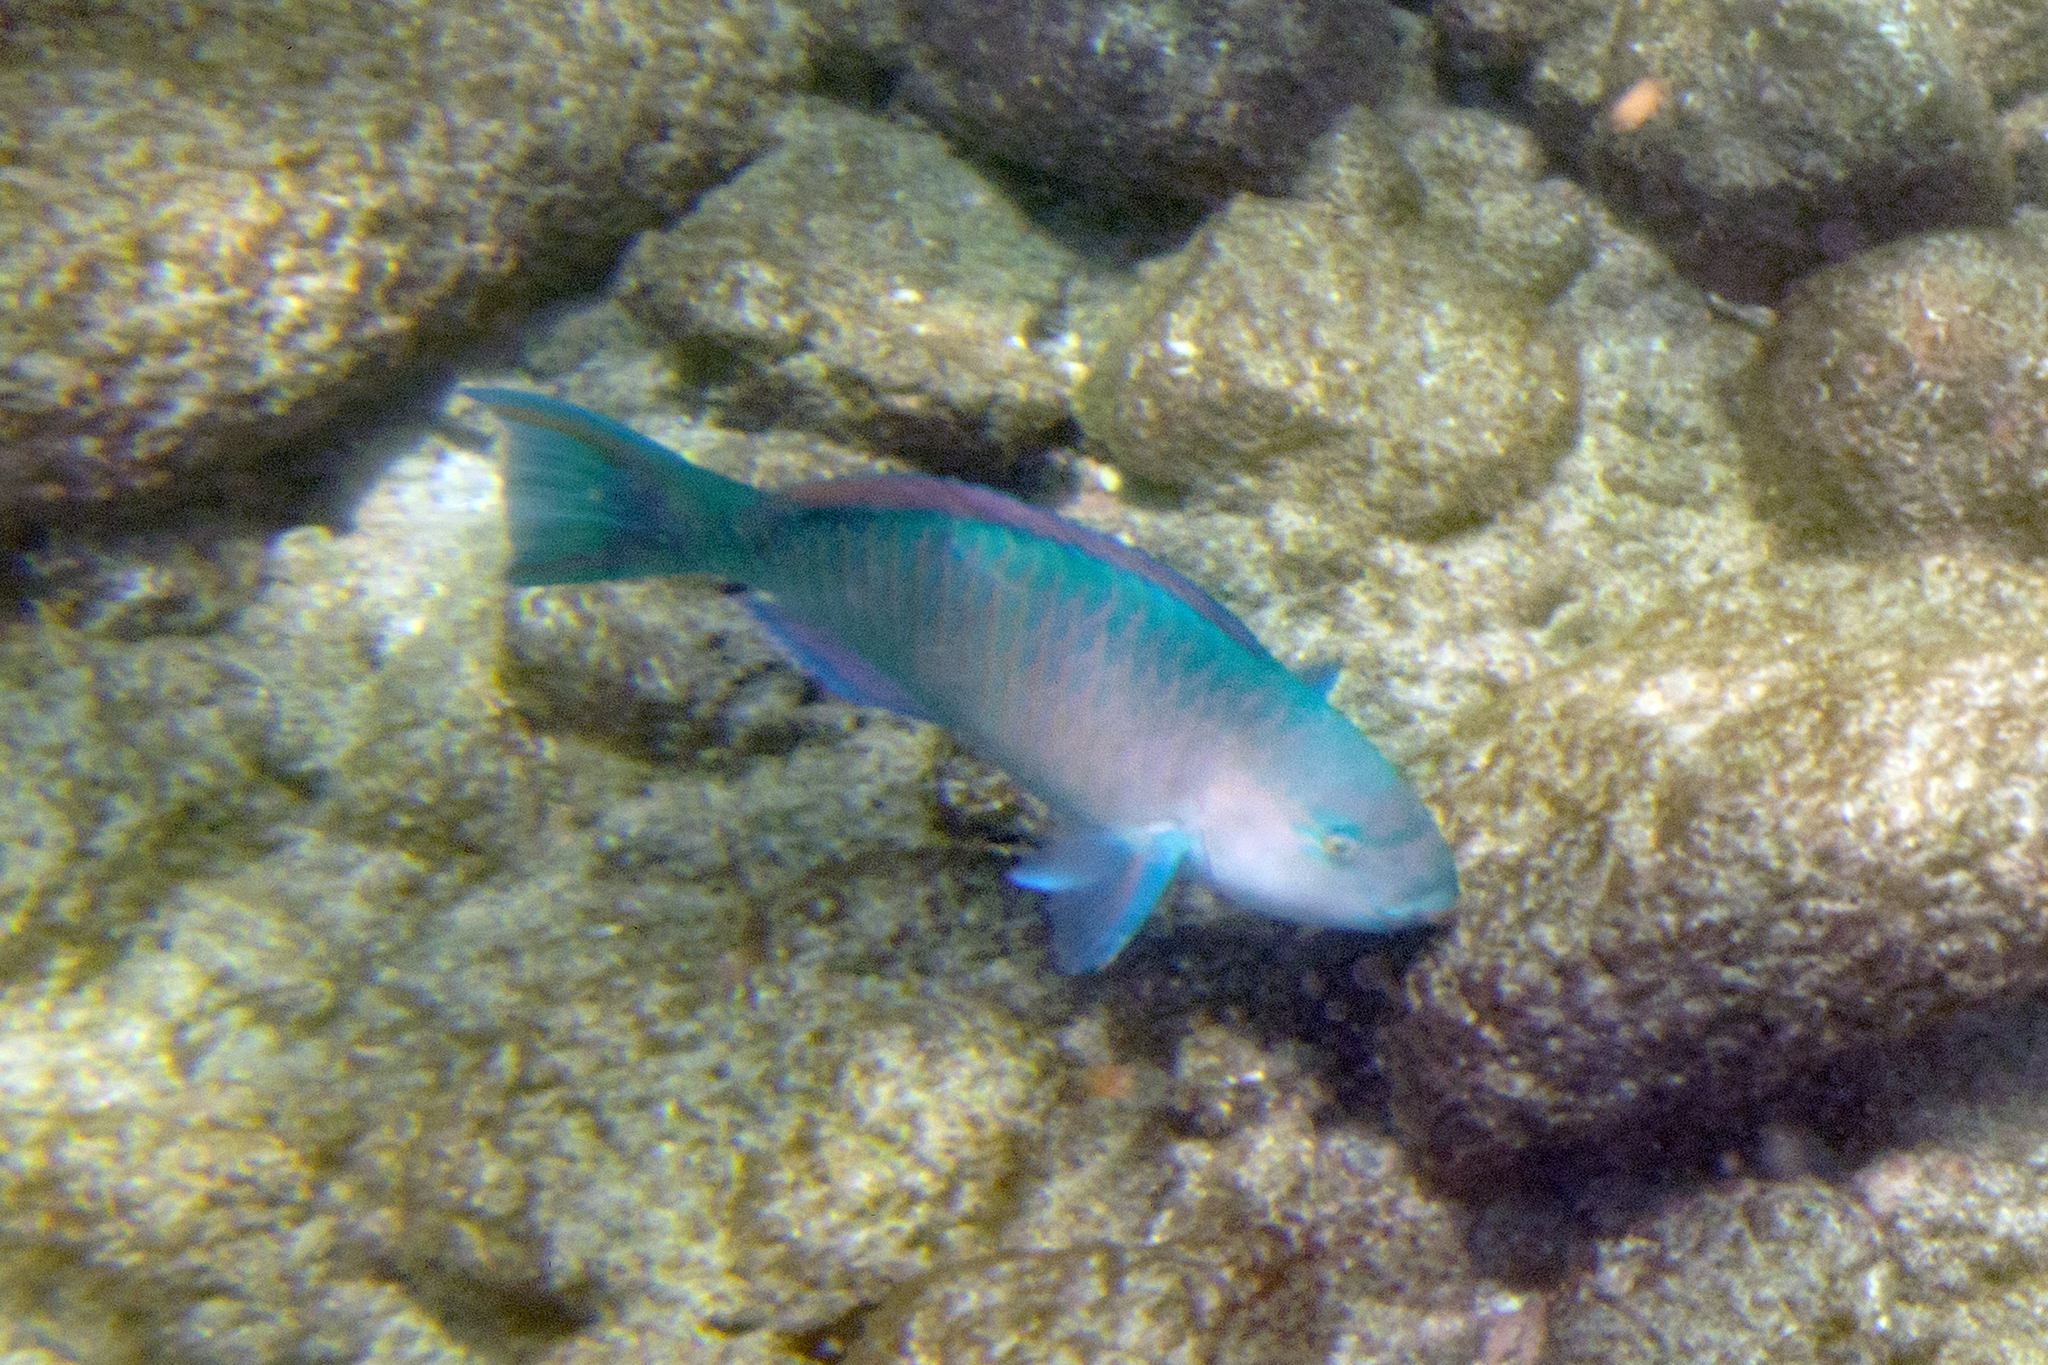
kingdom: Animalia
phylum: Chordata
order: Perciformes
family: Scaridae
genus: Scarus
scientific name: Scarus ghobban
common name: Blue-barred parrotfish
